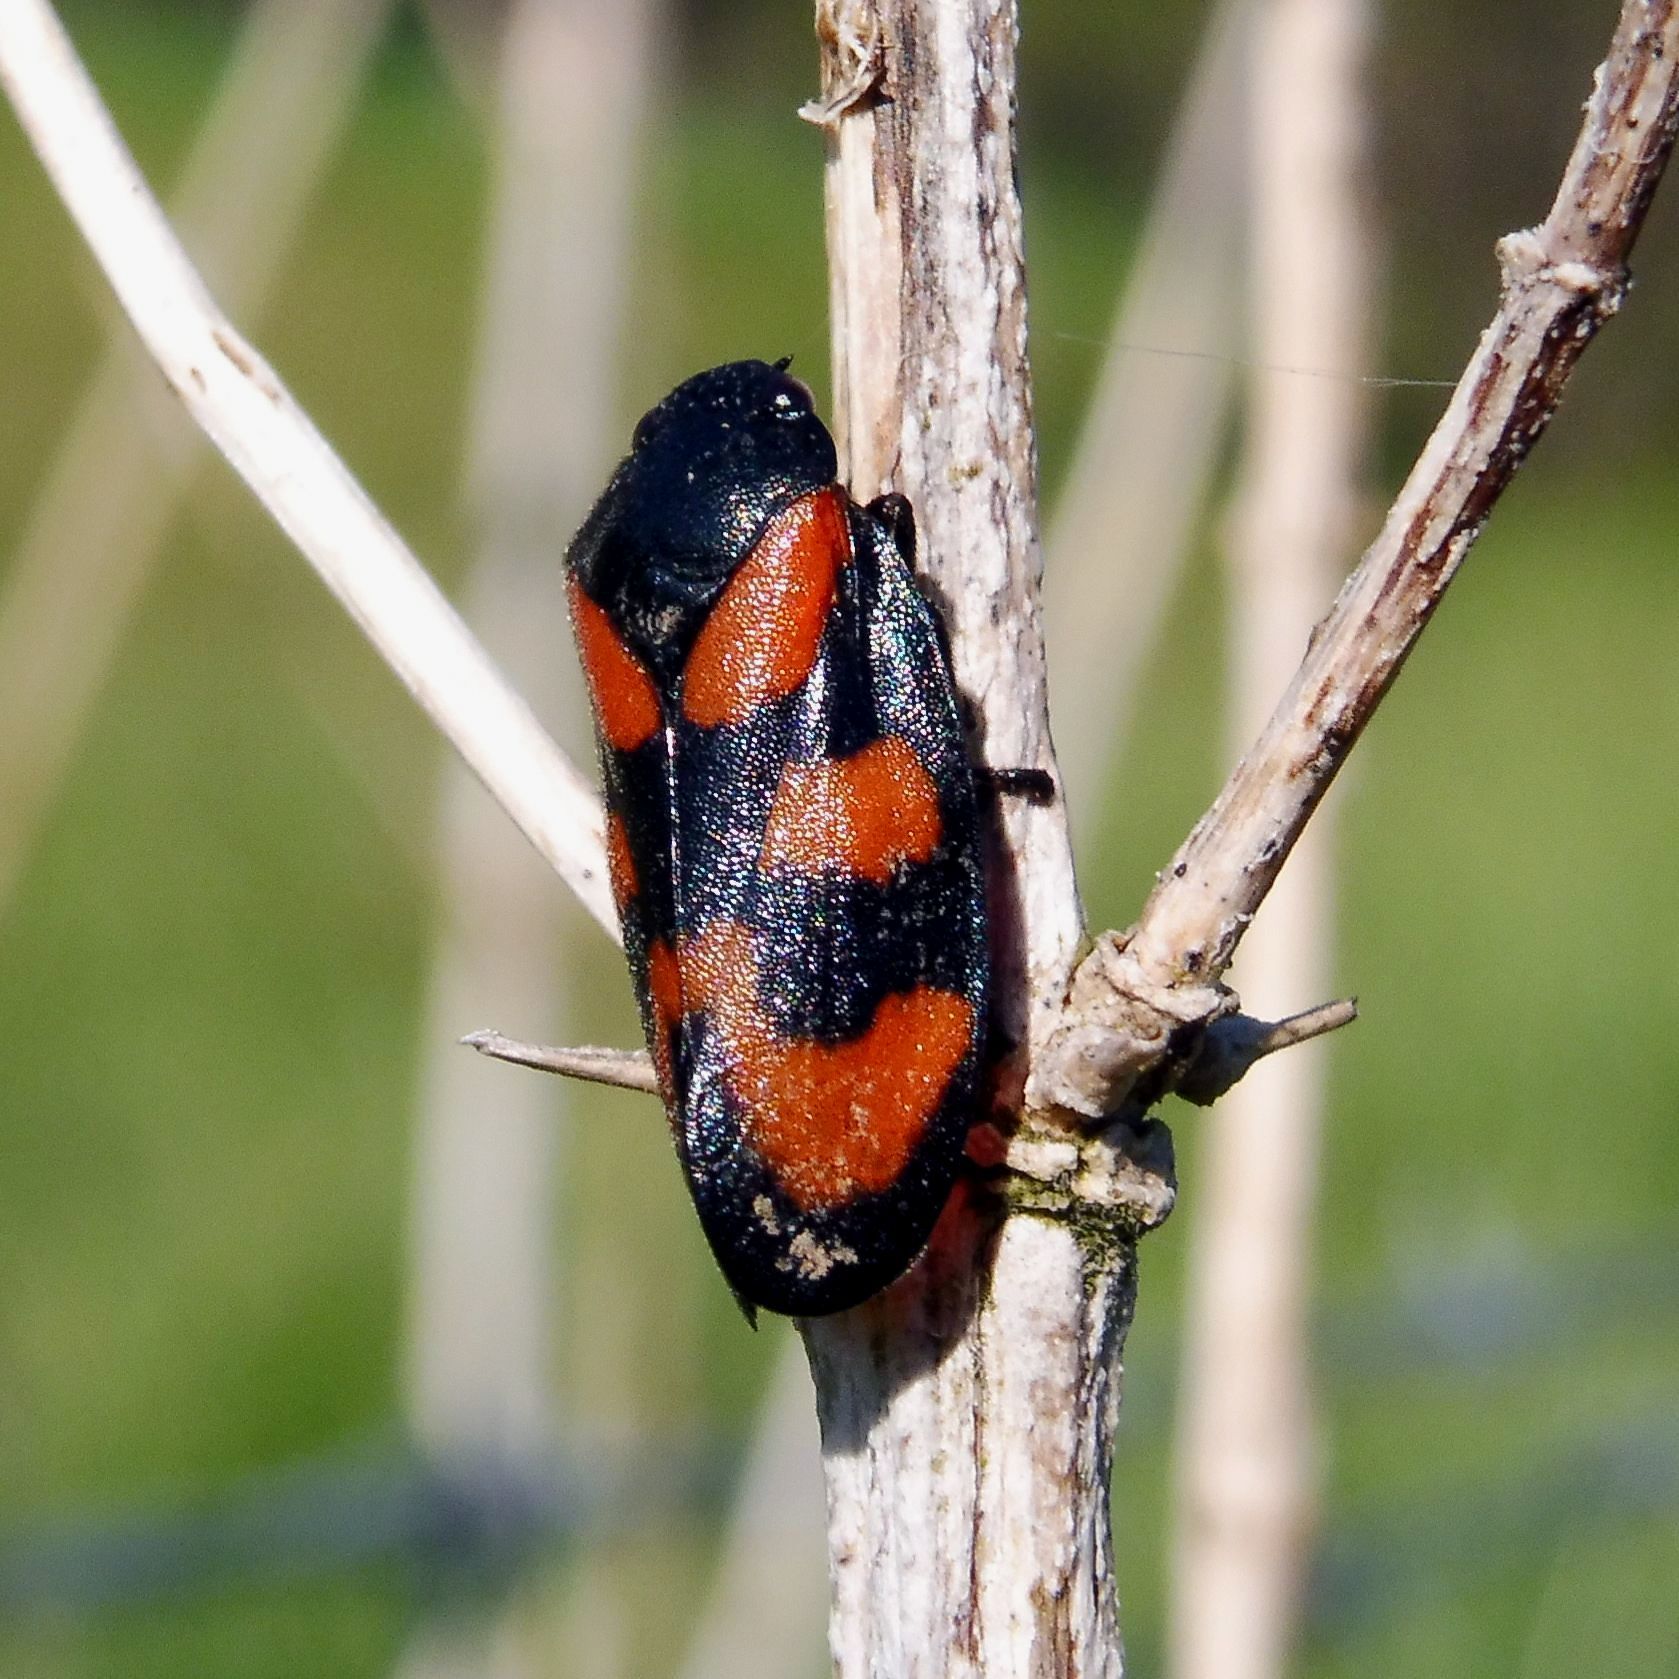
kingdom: Animalia
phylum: Arthropoda
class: Insecta
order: Hemiptera
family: Cercopidae
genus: Cercopis
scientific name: Cercopis vulnerata
